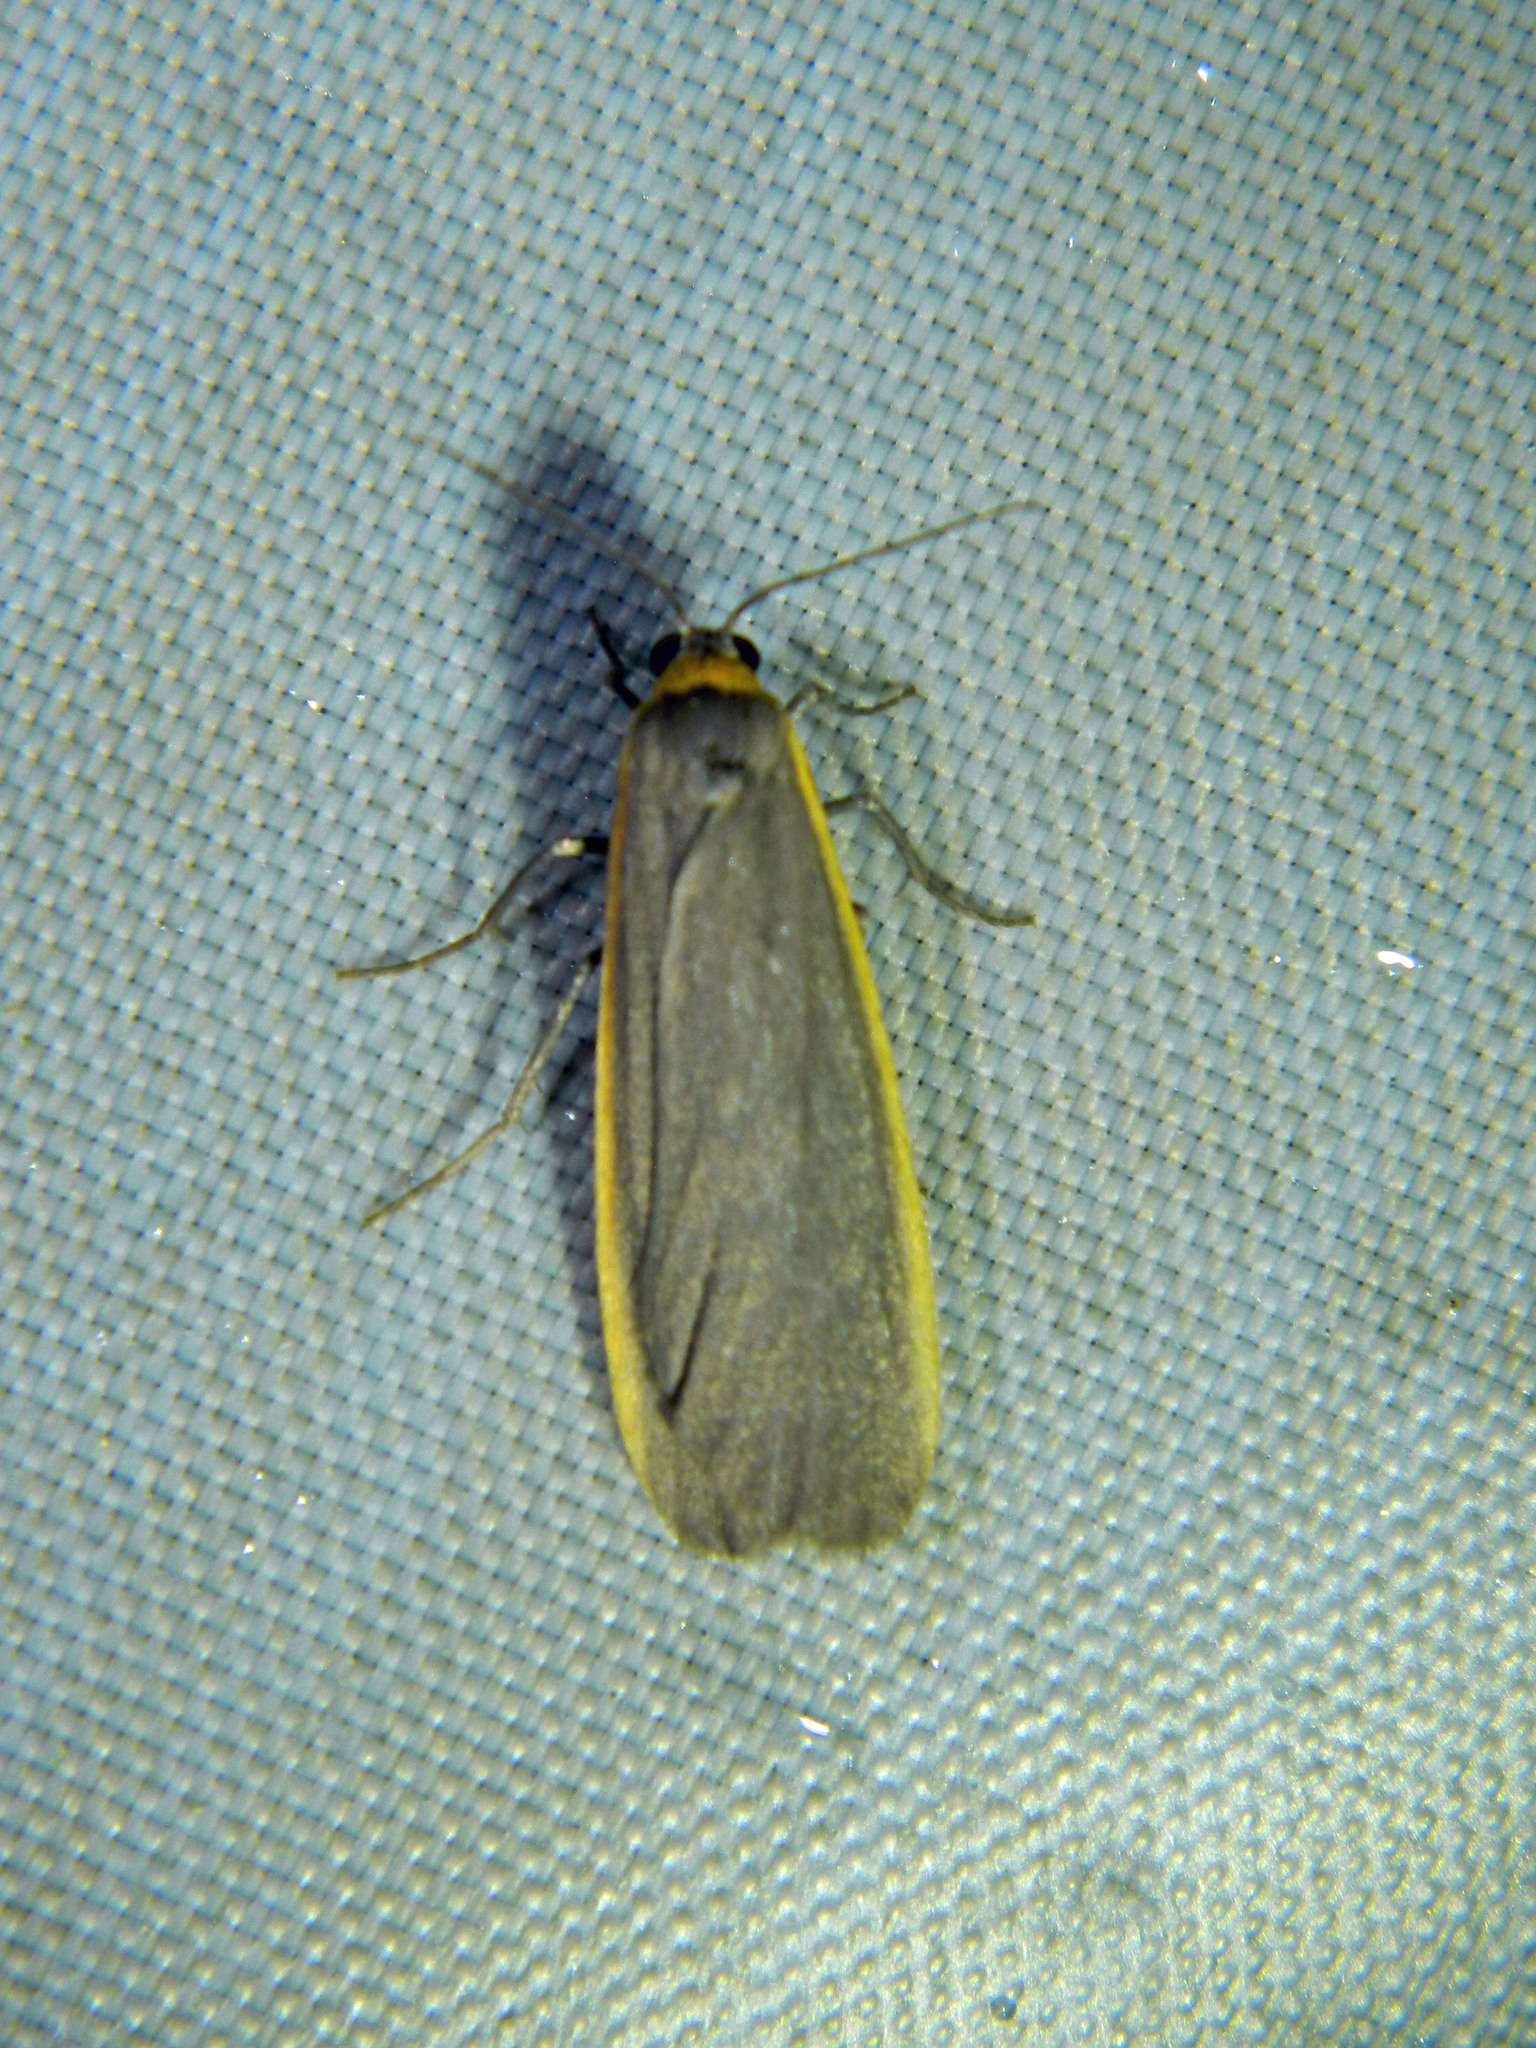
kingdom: Animalia
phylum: Arthropoda
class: Insecta
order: Lepidoptera
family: Erebidae
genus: Manulea
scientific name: Manulea bicolor
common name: Bicolored moth
